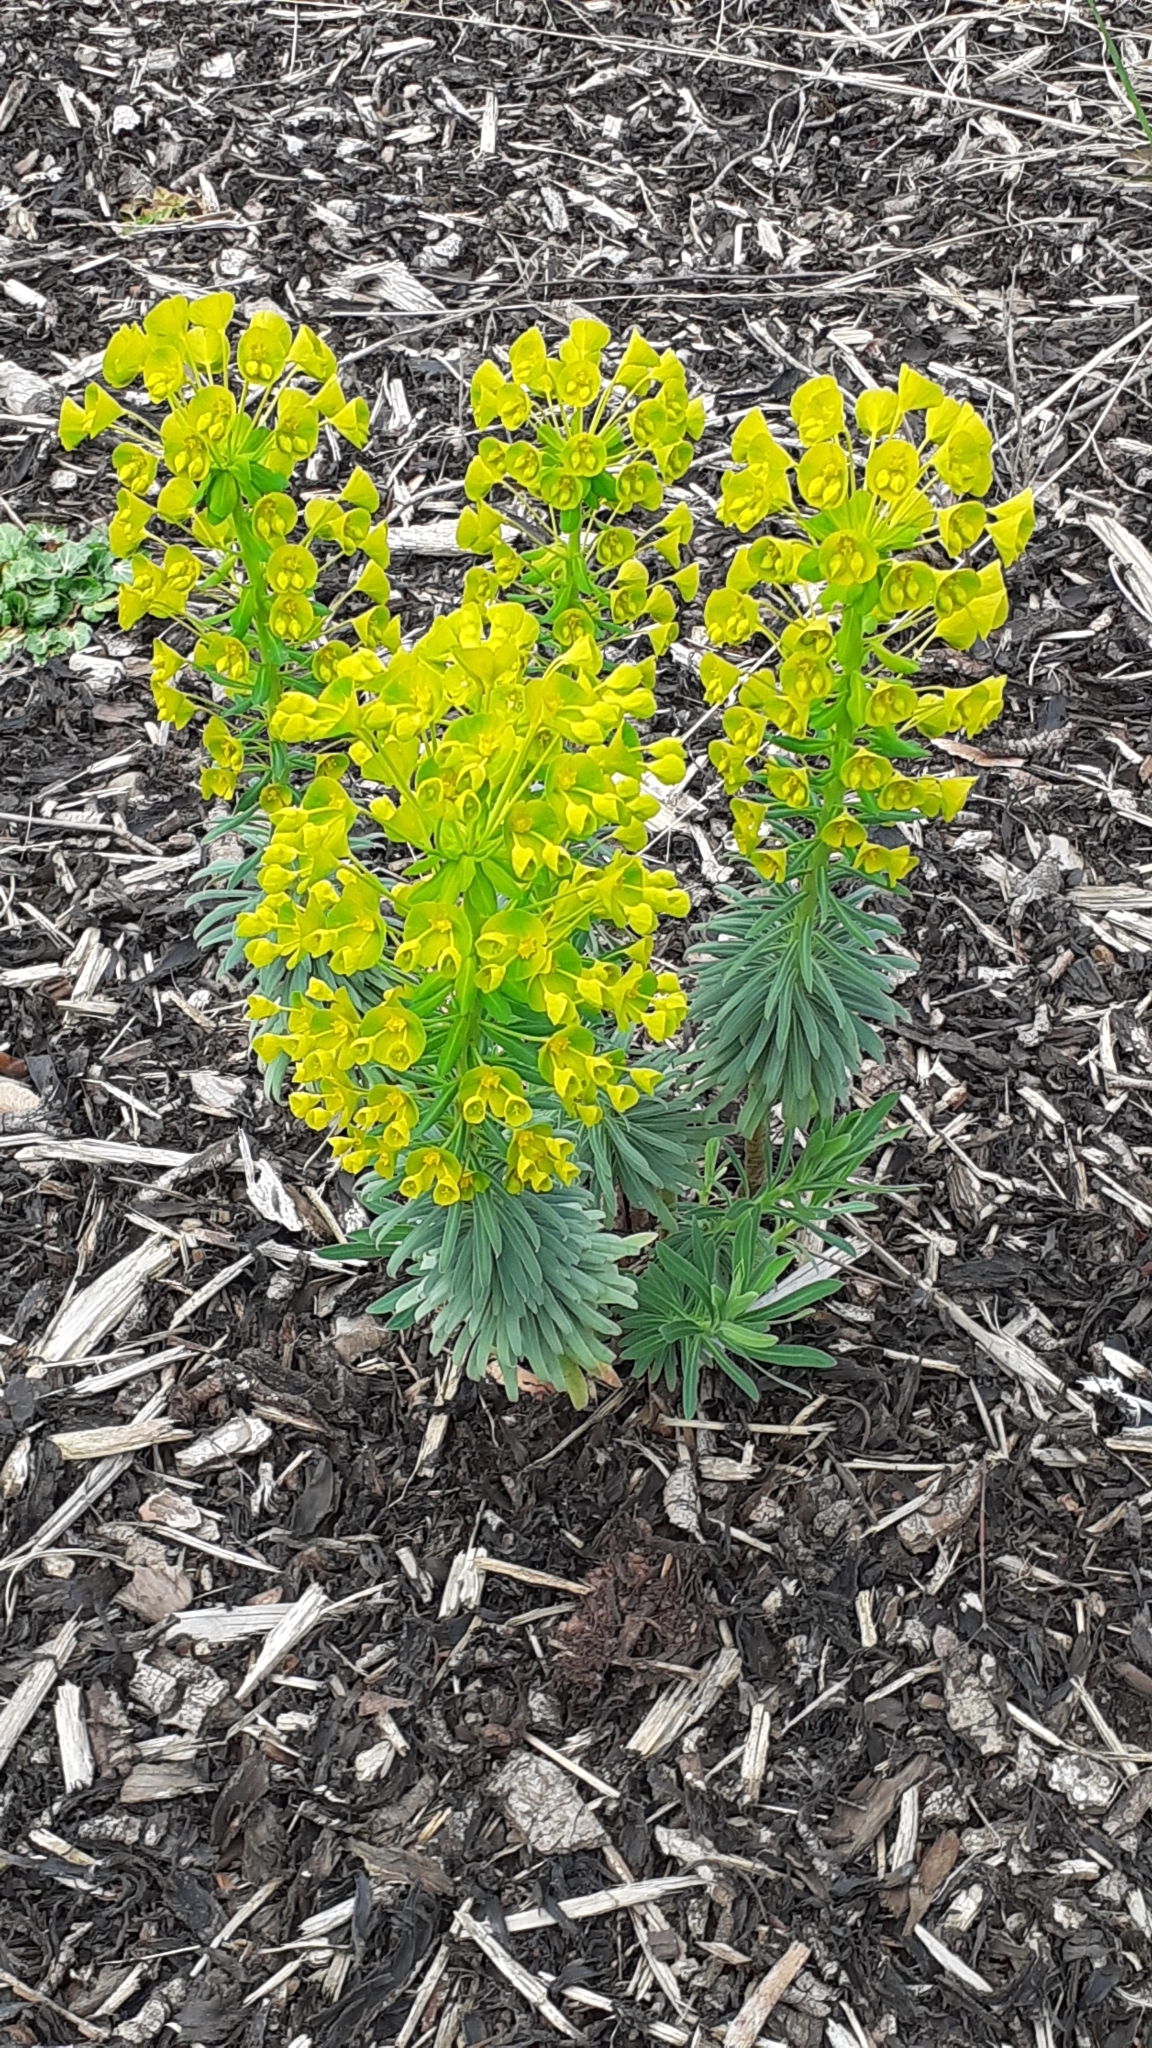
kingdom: Plantae
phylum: Tracheophyta
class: Magnoliopsida
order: Malpighiales
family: Euphorbiaceae
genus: Euphorbia
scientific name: Euphorbia characias
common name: Mediterranean spurge
